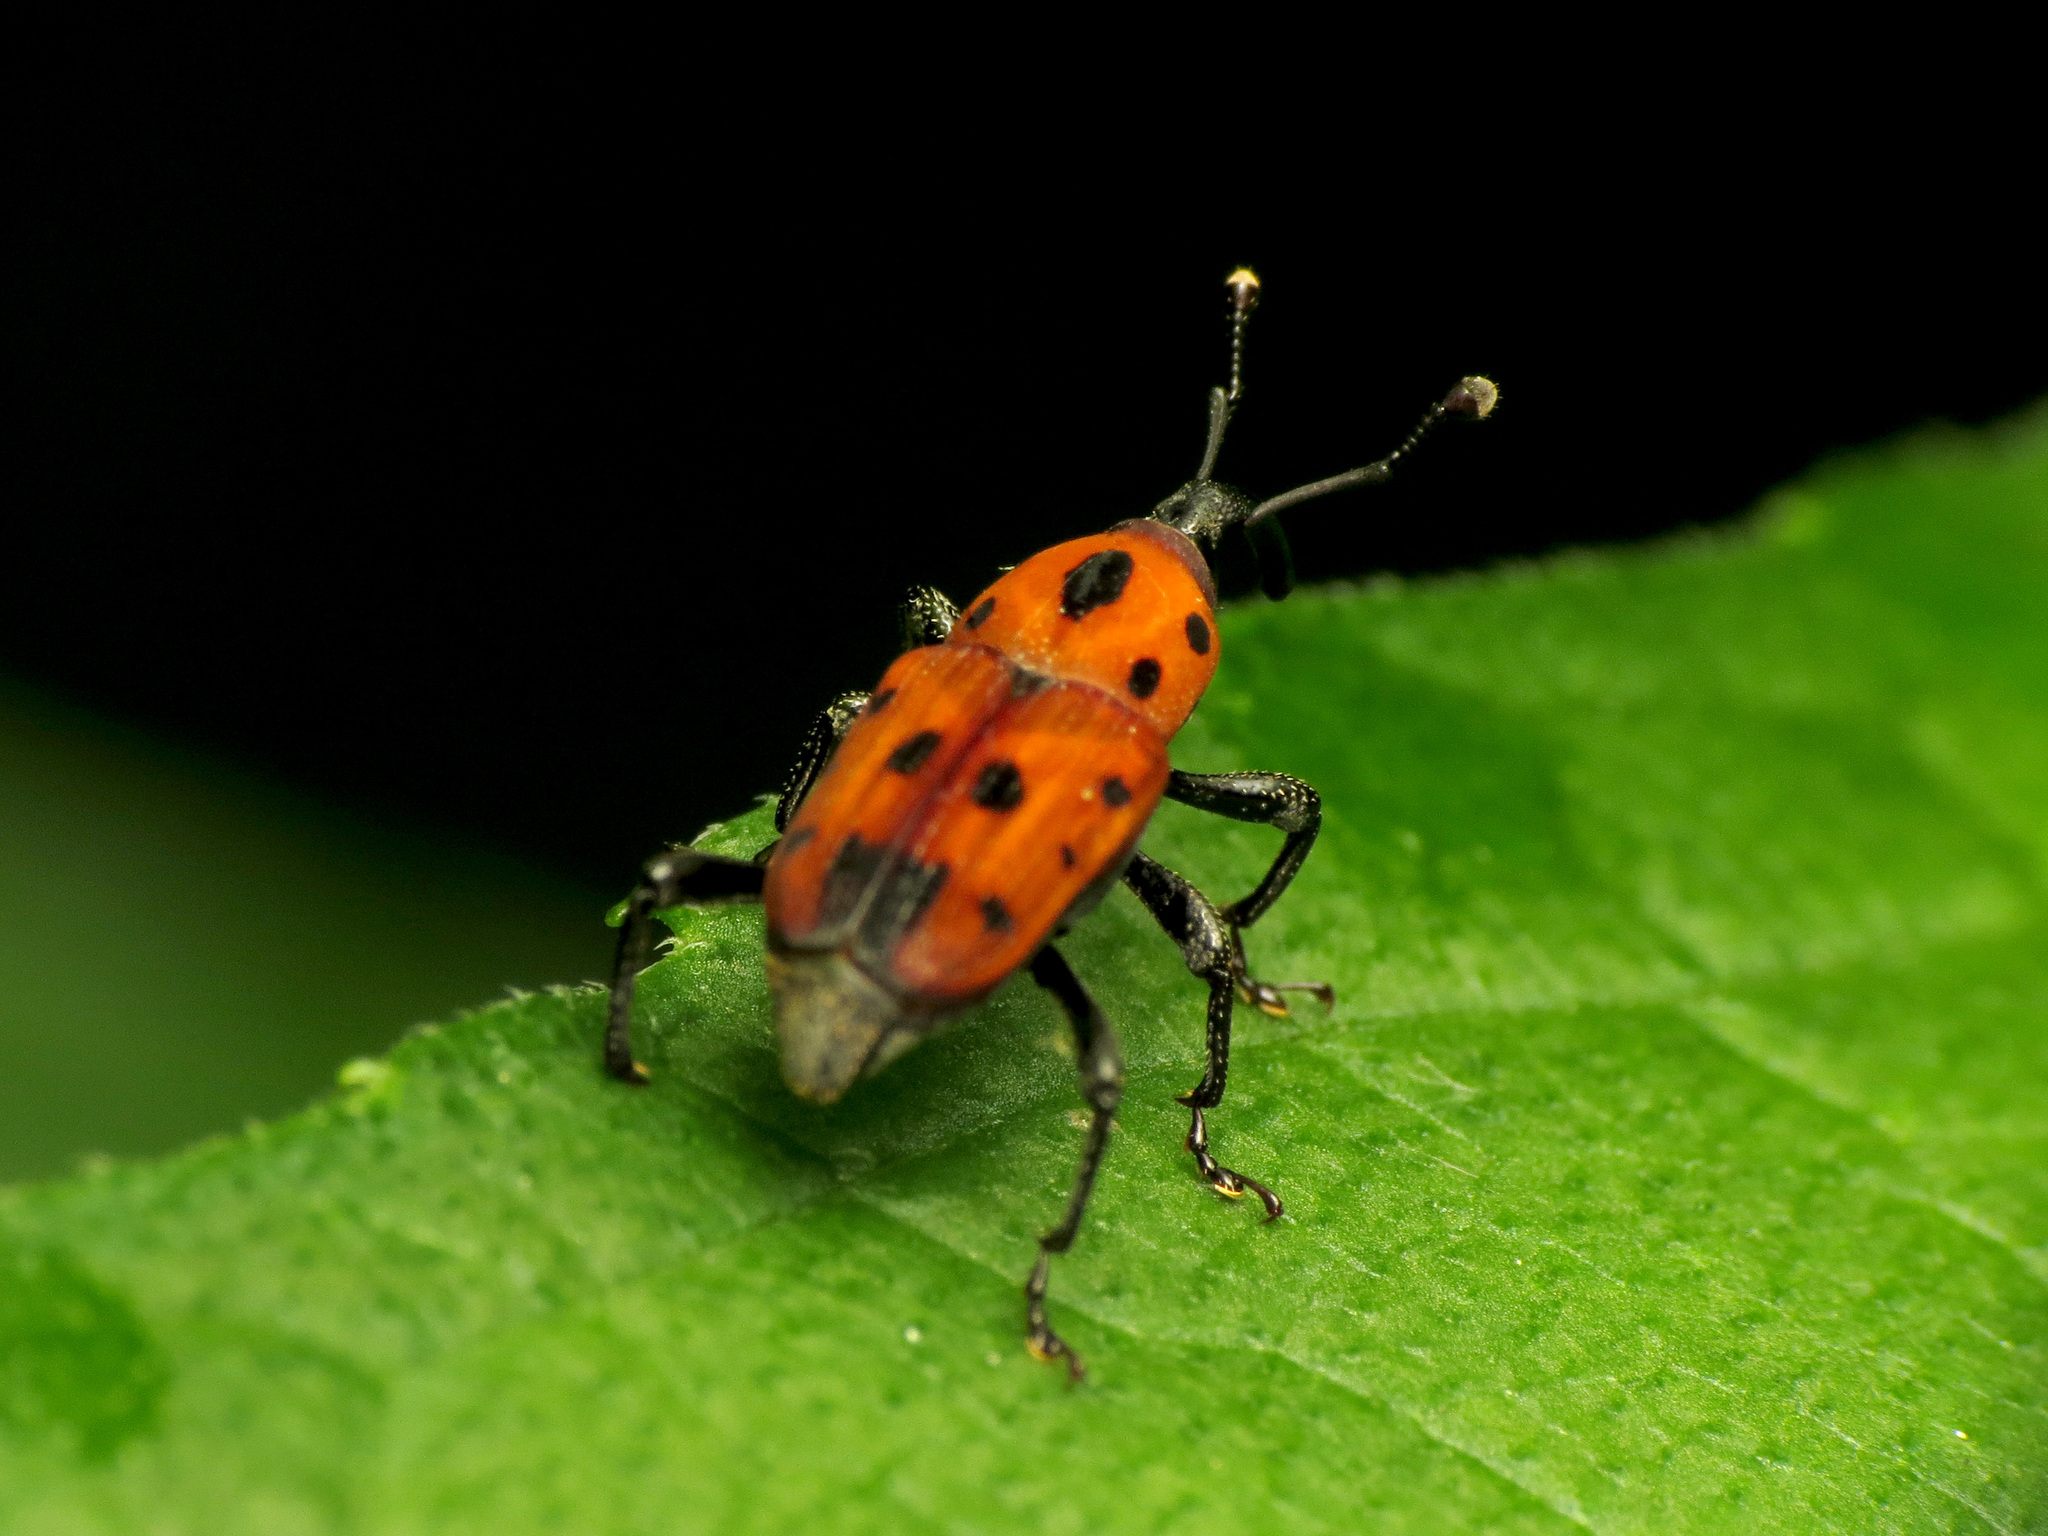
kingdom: Animalia
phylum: Arthropoda
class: Insecta
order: Coleoptera
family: Dryophthoridae
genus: Rhodobaenus
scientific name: Rhodobaenus quinquepunctatus
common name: Cocklebur weevil
